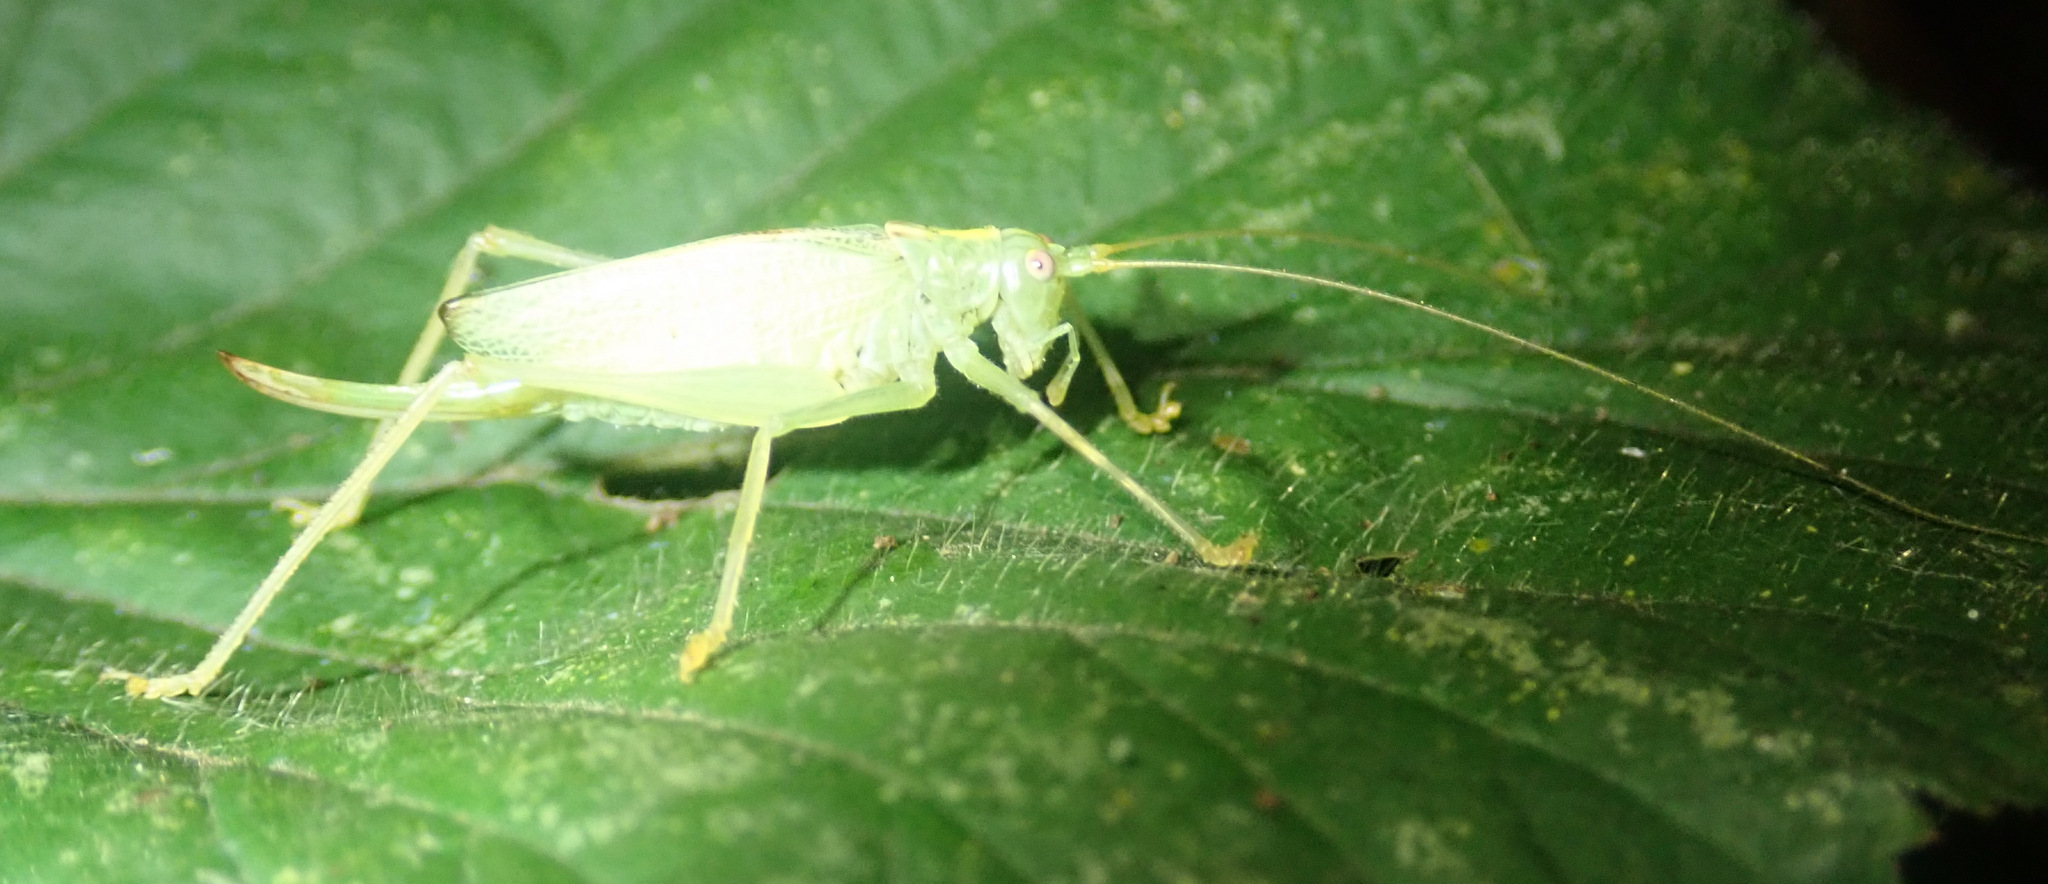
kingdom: Animalia
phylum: Arthropoda
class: Insecta
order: Orthoptera
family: Tettigoniidae
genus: Meconema
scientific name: Meconema thalassinum
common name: Oak bush-cricket
